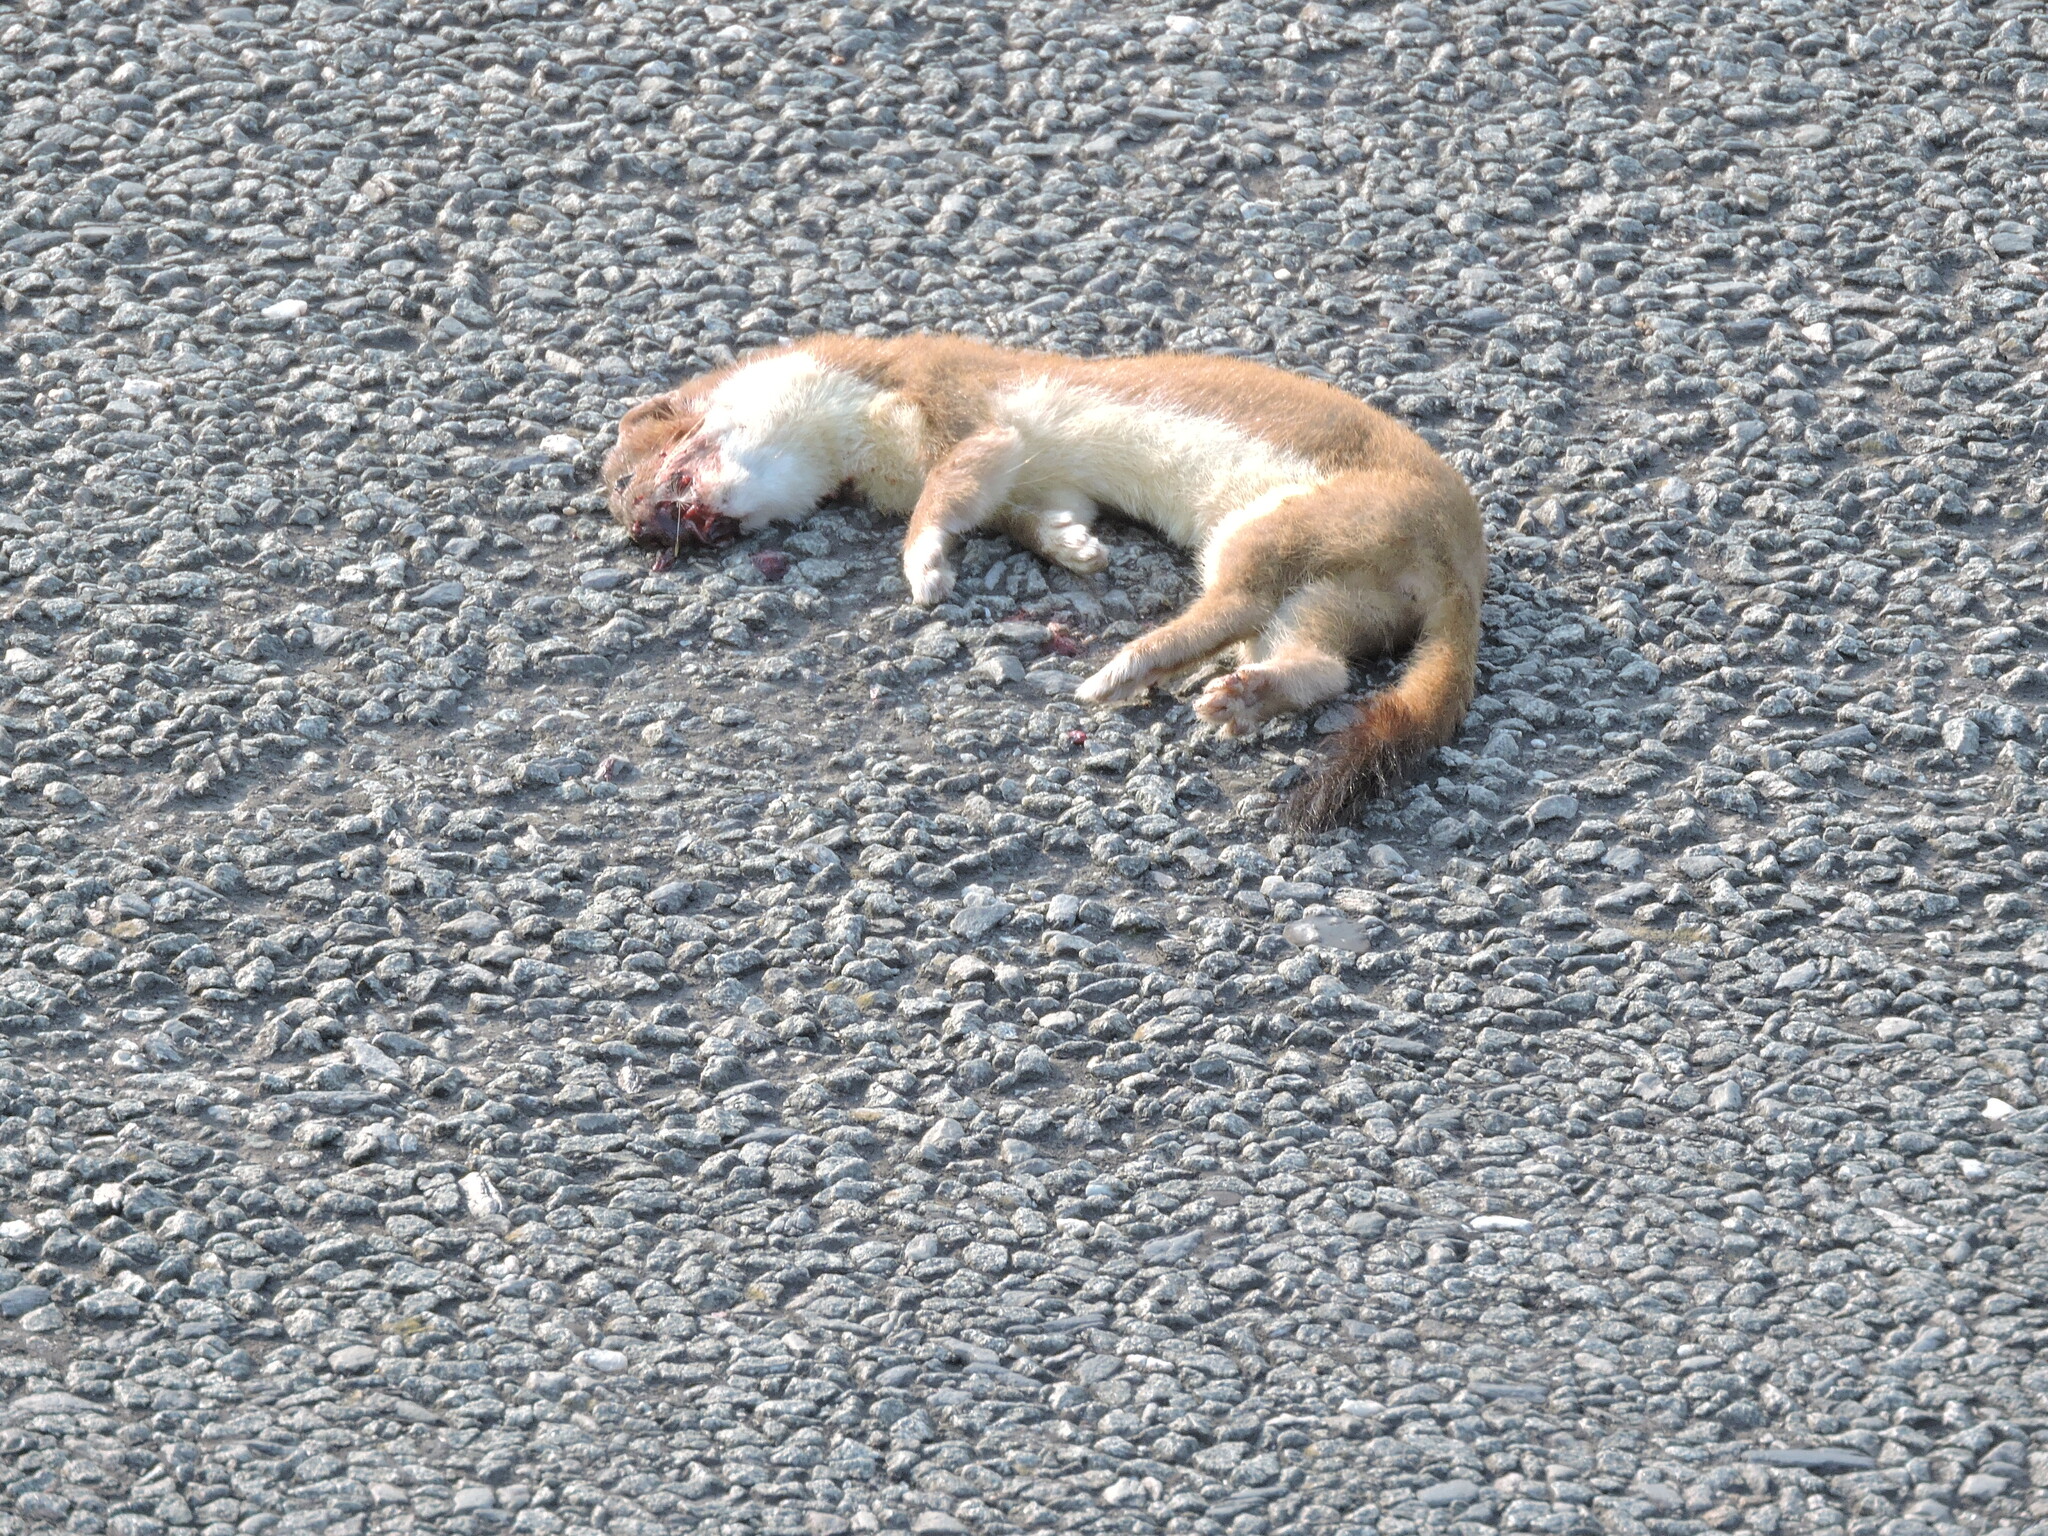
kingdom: Animalia
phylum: Chordata
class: Mammalia
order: Carnivora
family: Mustelidae
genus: Mustela
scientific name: Mustela erminea
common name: Stoat
